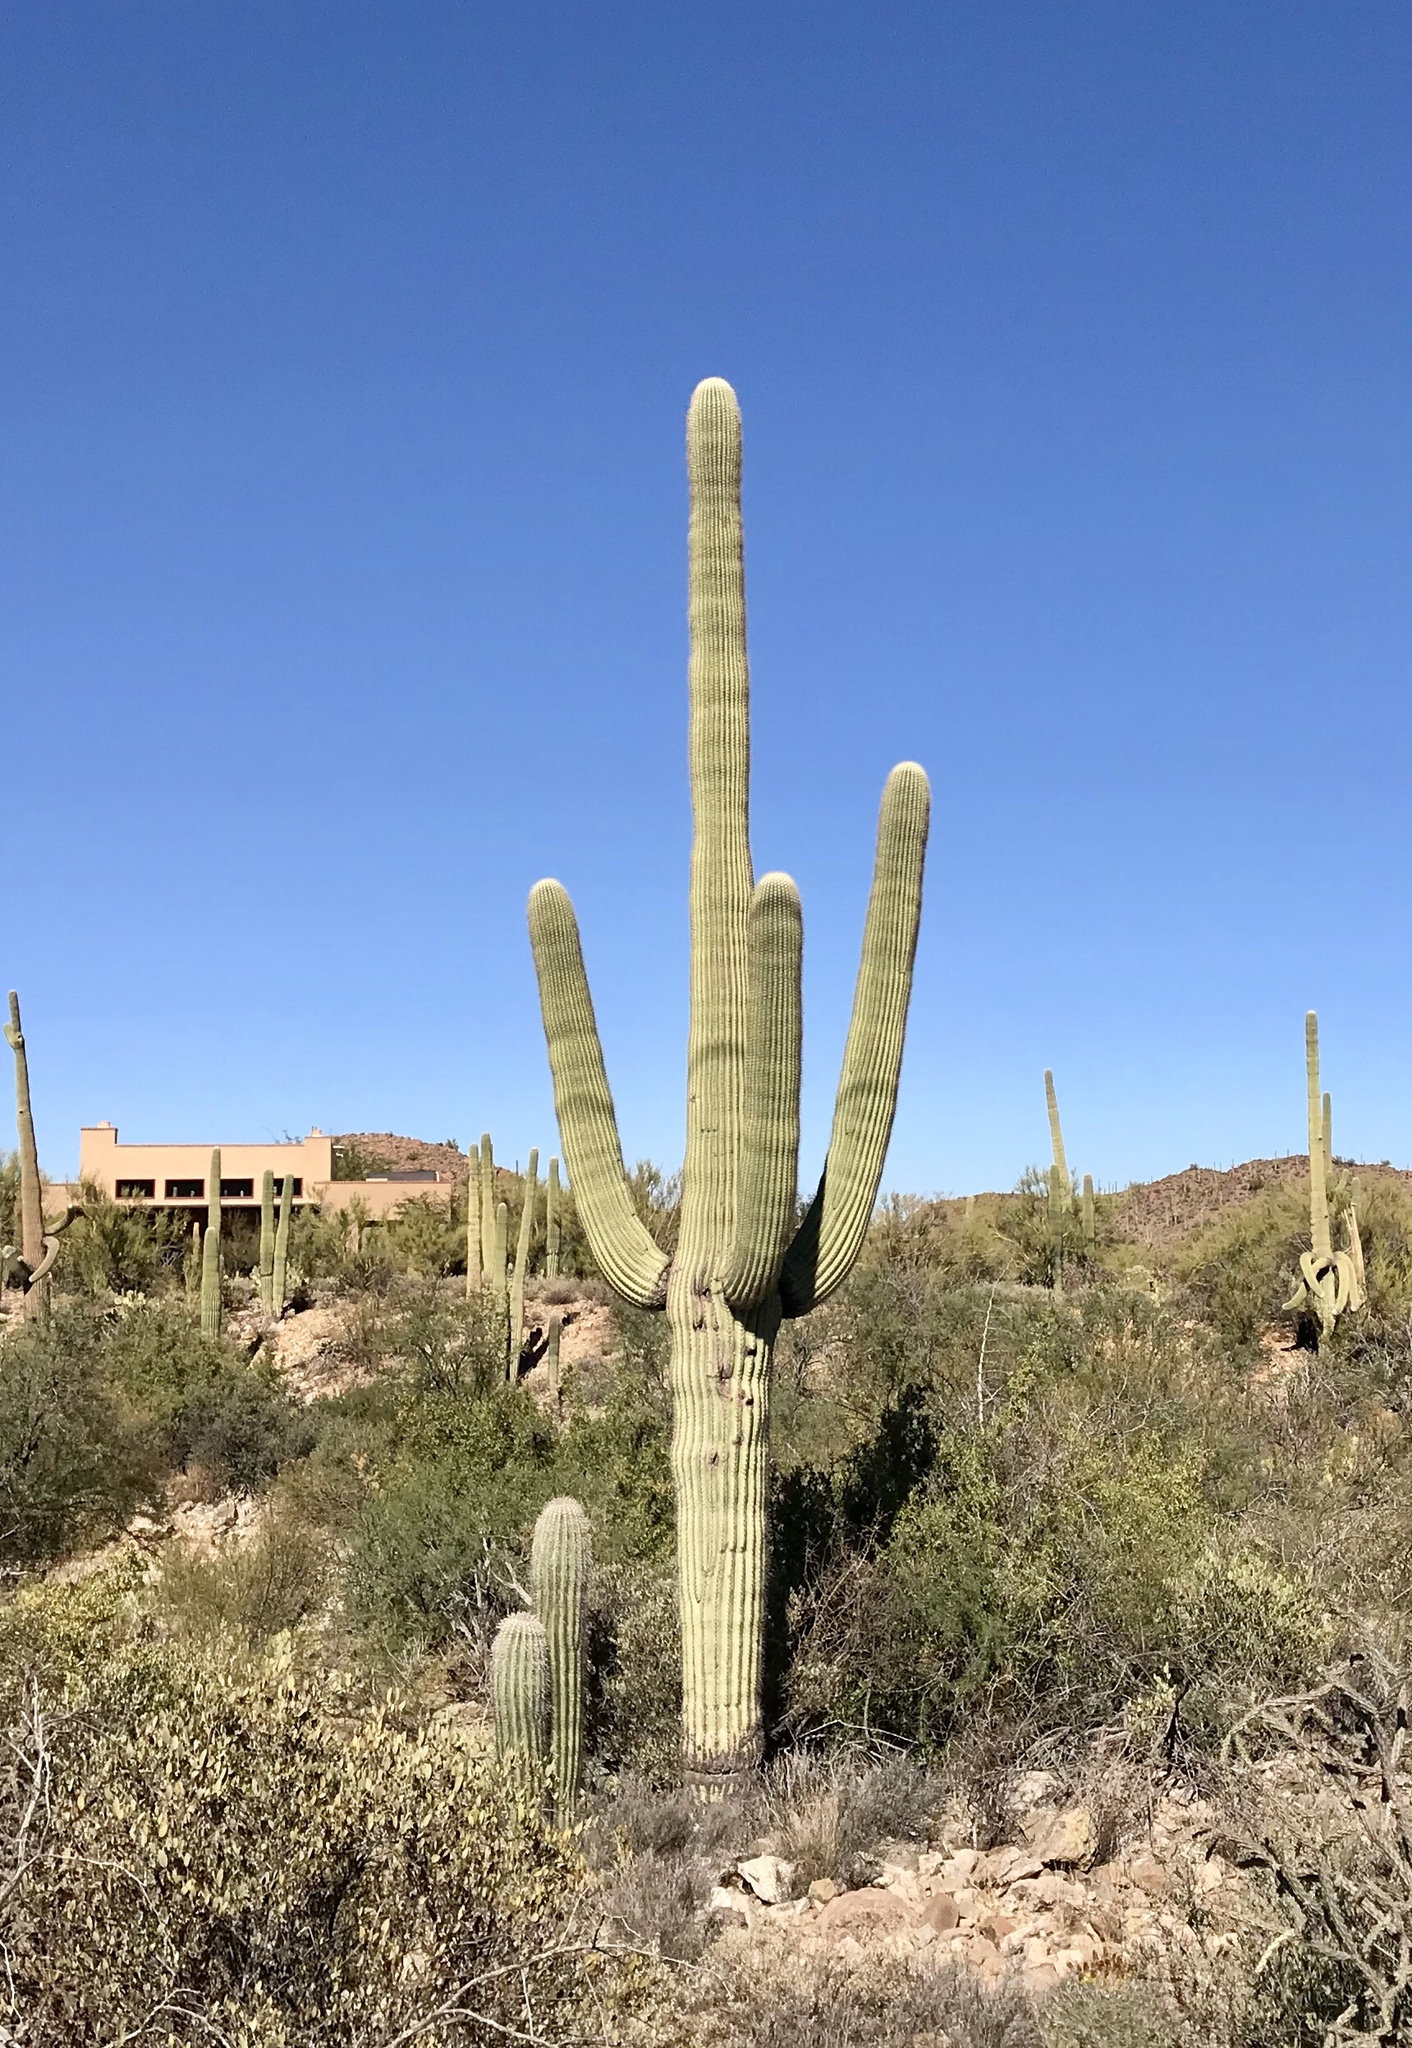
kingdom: Plantae
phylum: Tracheophyta
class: Magnoliopsida
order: Caryophyllales
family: Cactaceae
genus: Carnegiea
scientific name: Carnegiea gigantea
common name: Saguaro
